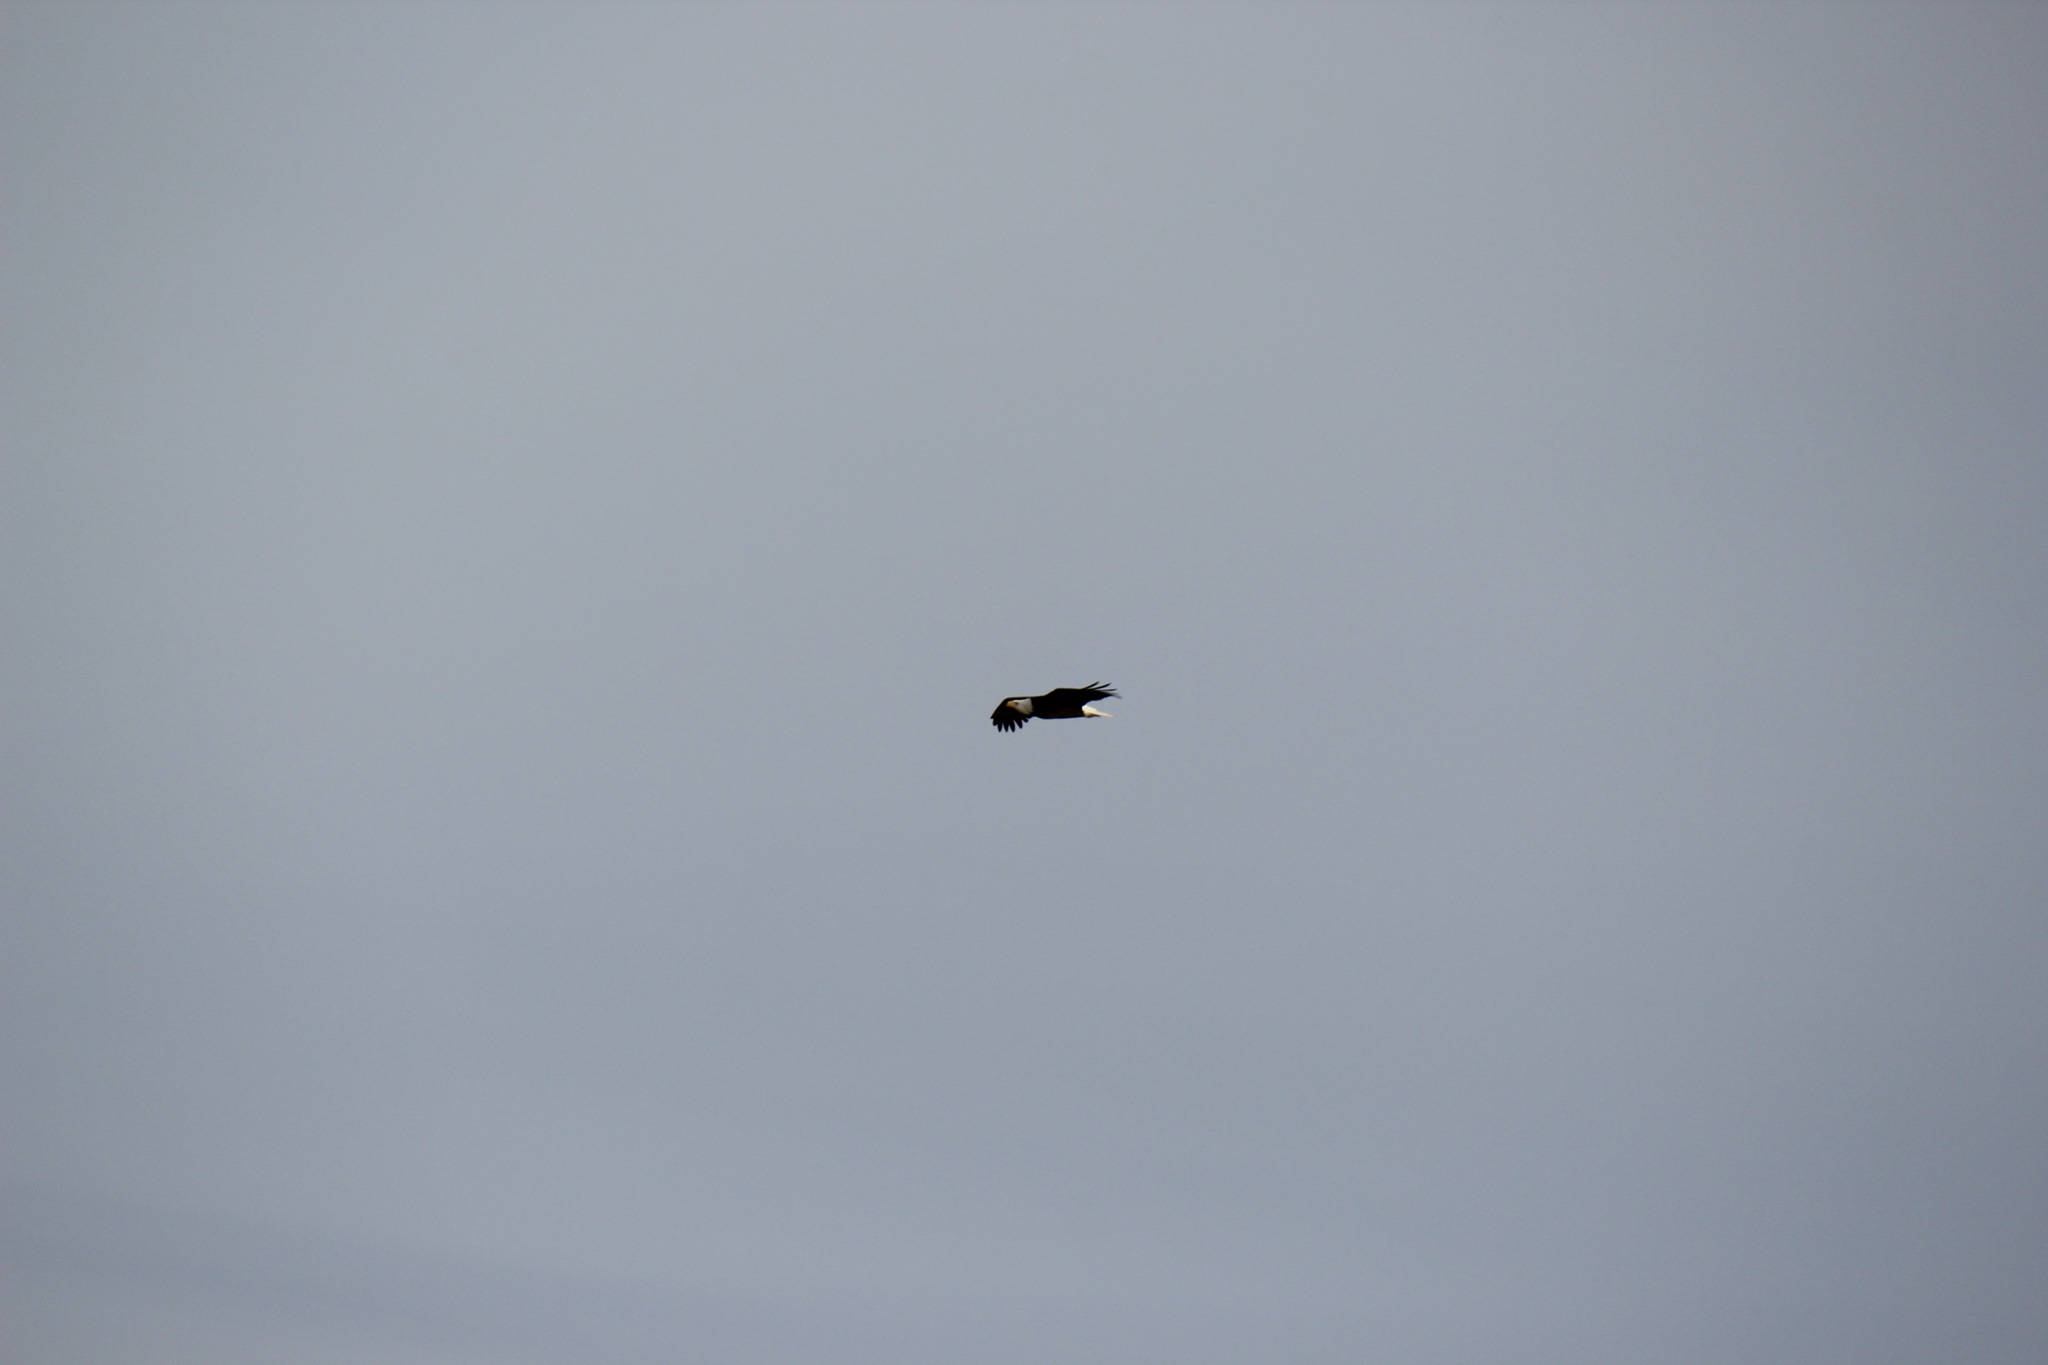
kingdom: Animalia
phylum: Chordata
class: Aves
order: Accipitriformes
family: Accipitridae
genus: Haliaeetus
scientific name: Haliaeetus leucocephalus
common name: Bald eagle
